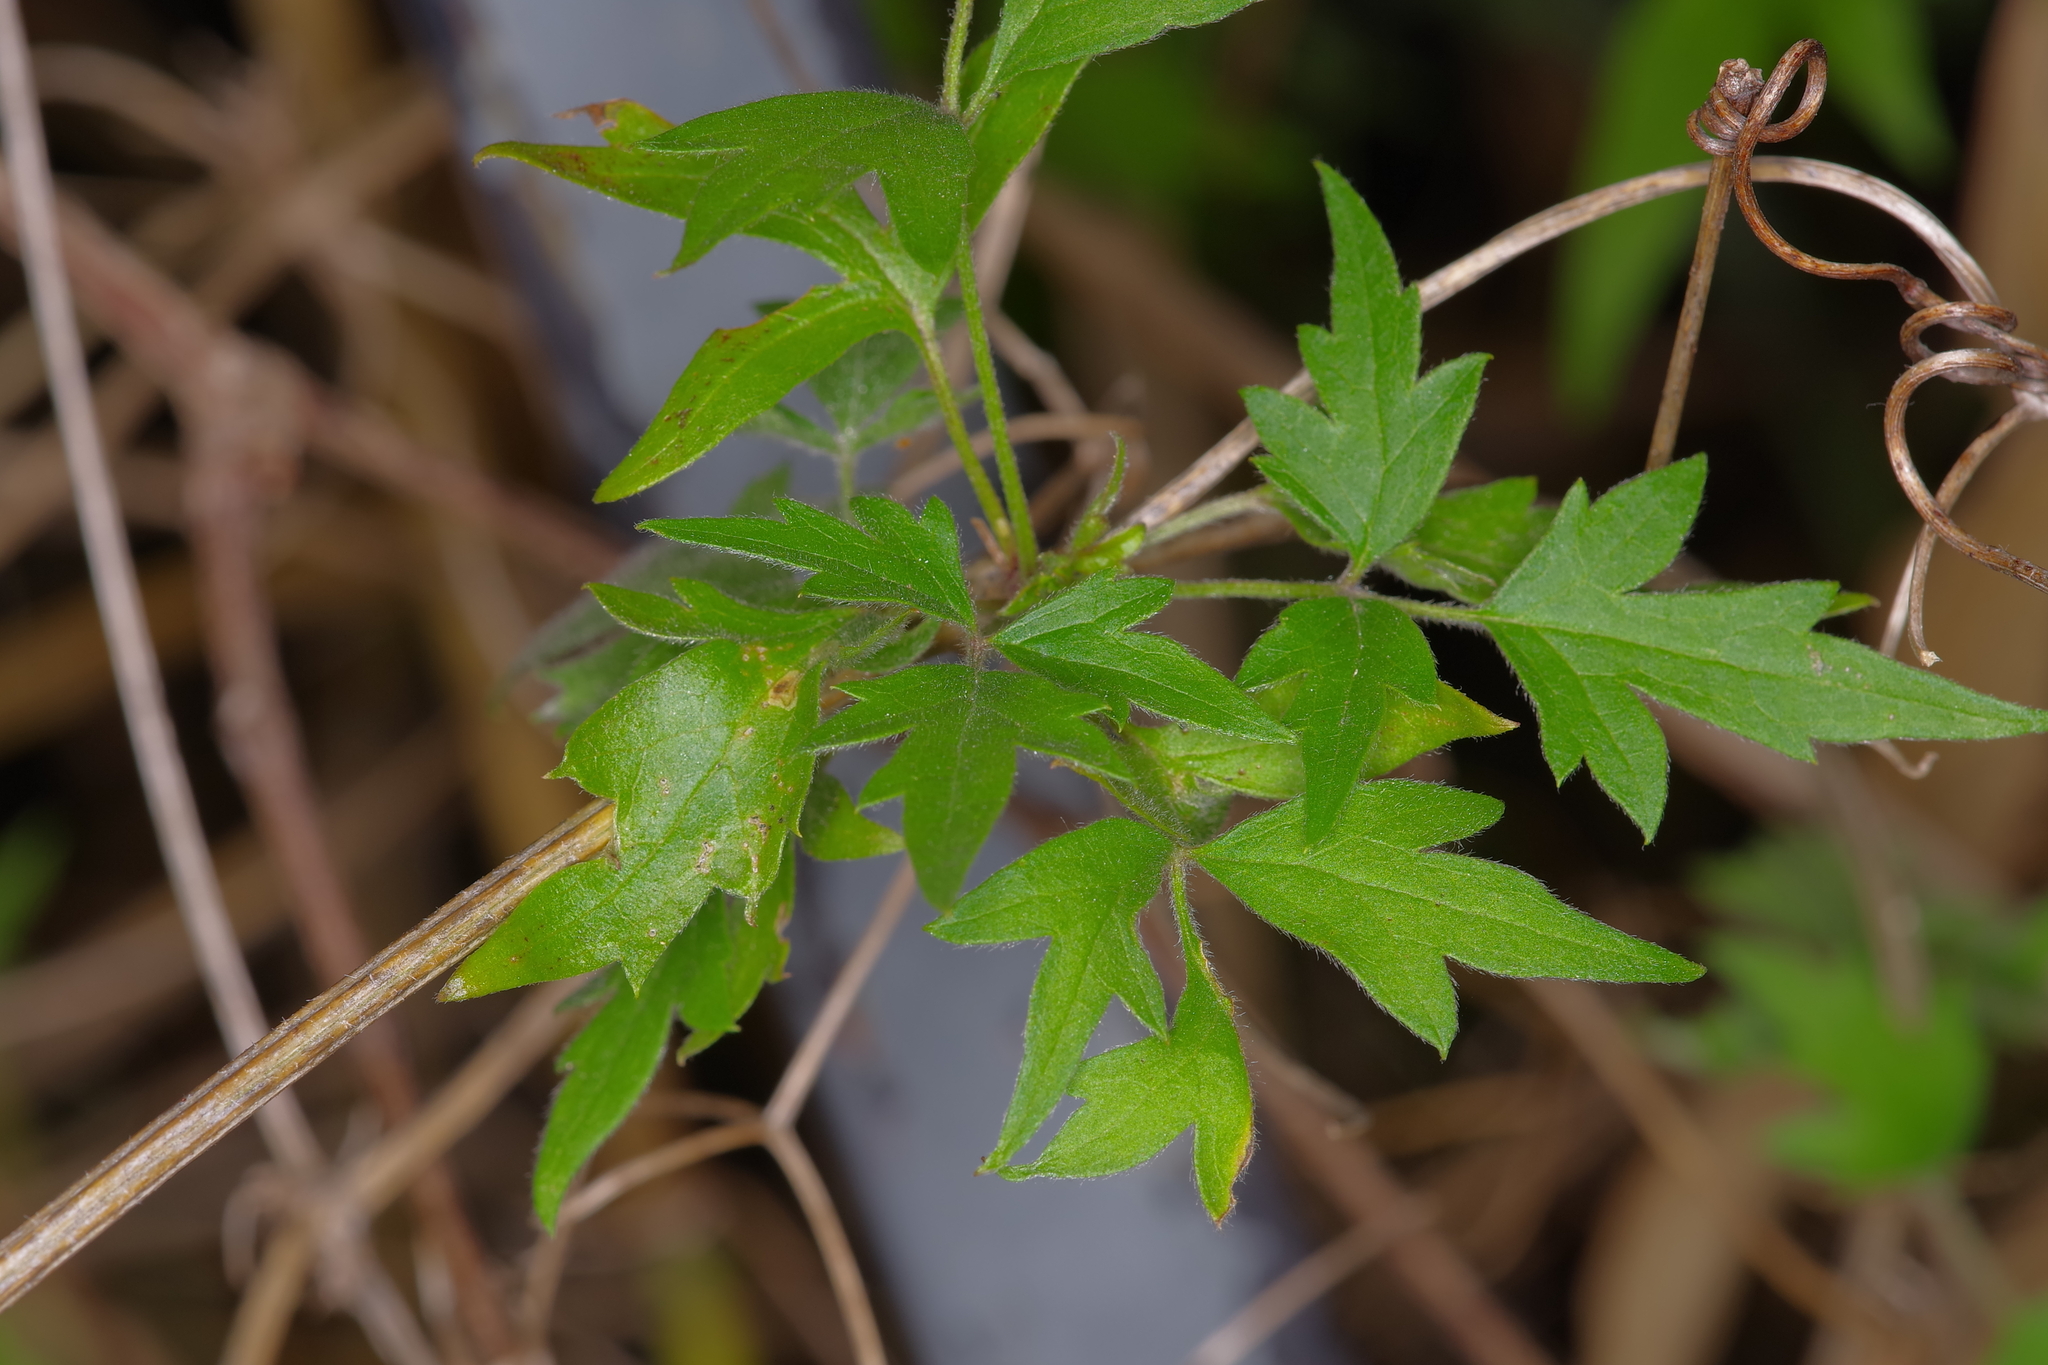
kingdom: Plantae
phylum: Tracheophyta
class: Magnoliopsida
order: Ranunculales
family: Ranunculaceae
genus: Clematis
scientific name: Clematis drummondii
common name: Texas virgin's bower
